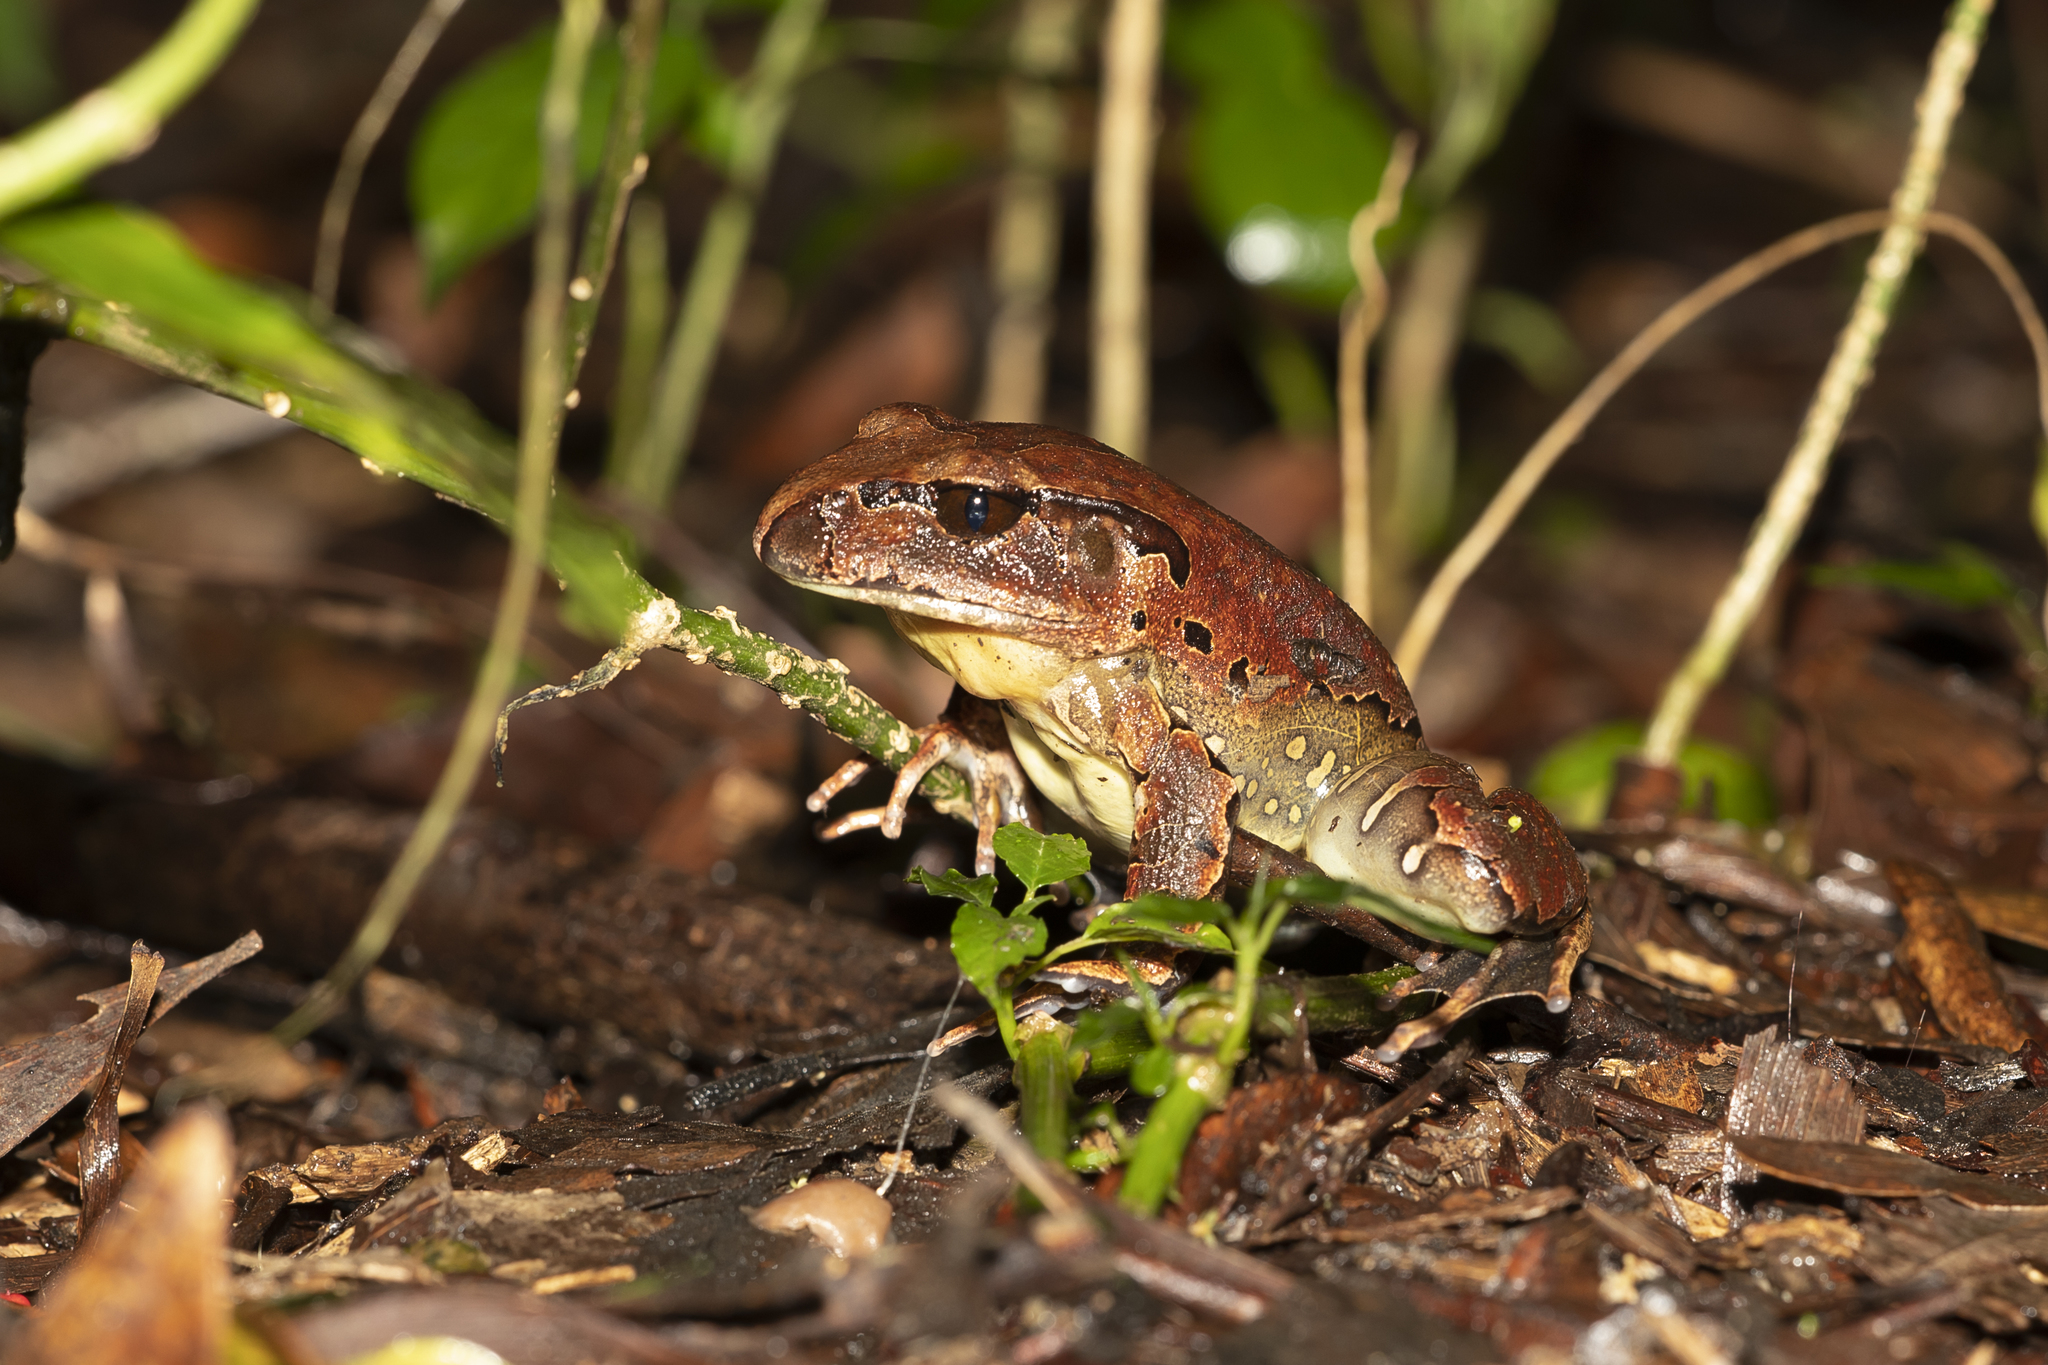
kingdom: Animalia
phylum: Chordata
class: Amphibia
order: Anura
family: Myobatrachidae
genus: Mixophyes
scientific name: Mixophyes schevilli
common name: Northern barred frog
